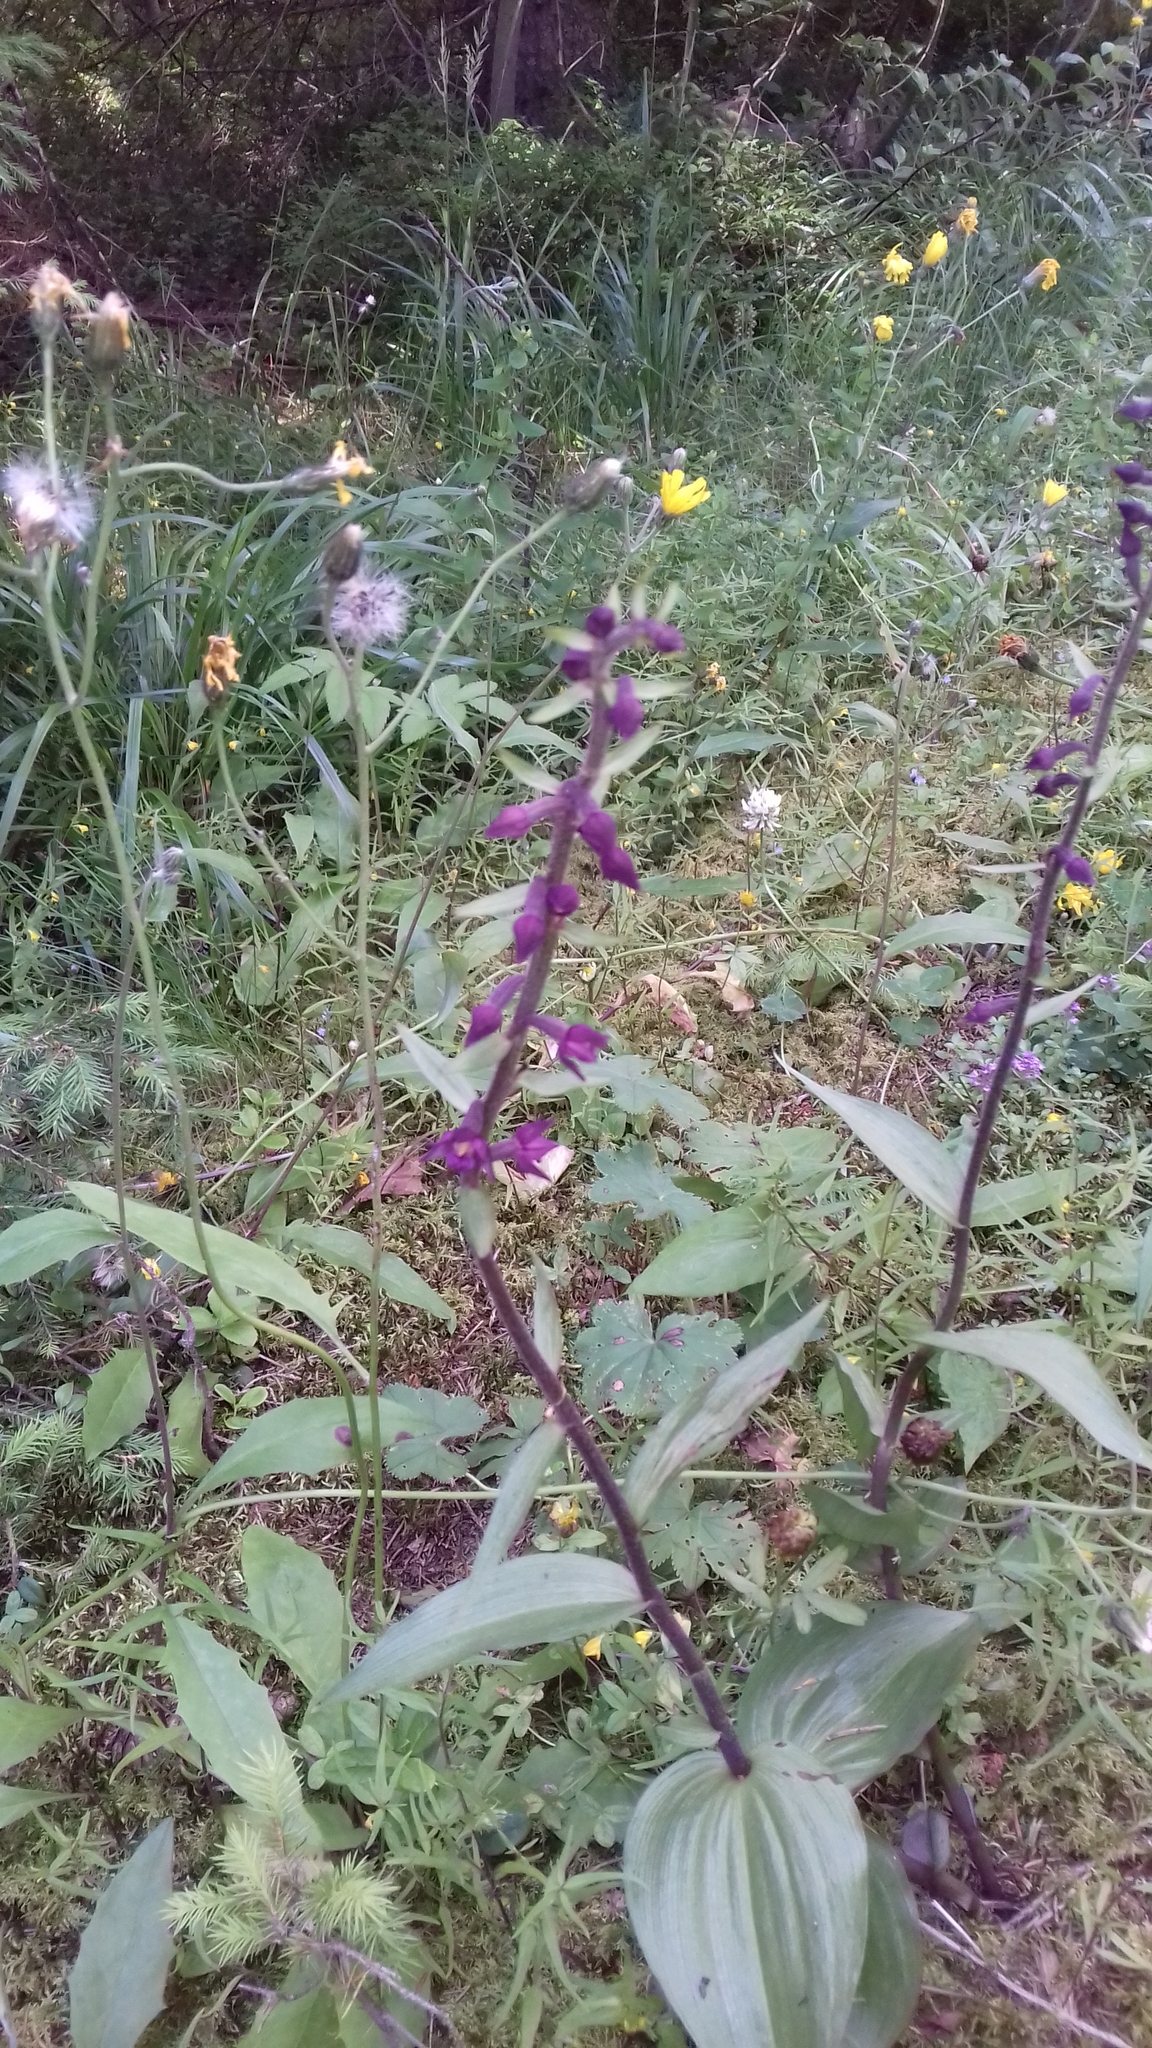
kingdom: Plantae
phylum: Tracheophyta
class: Liliopsida
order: Asparagales
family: Orchidaceae
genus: Epipactis
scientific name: Epipactis atrorubens
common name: Dark-red helleborine
